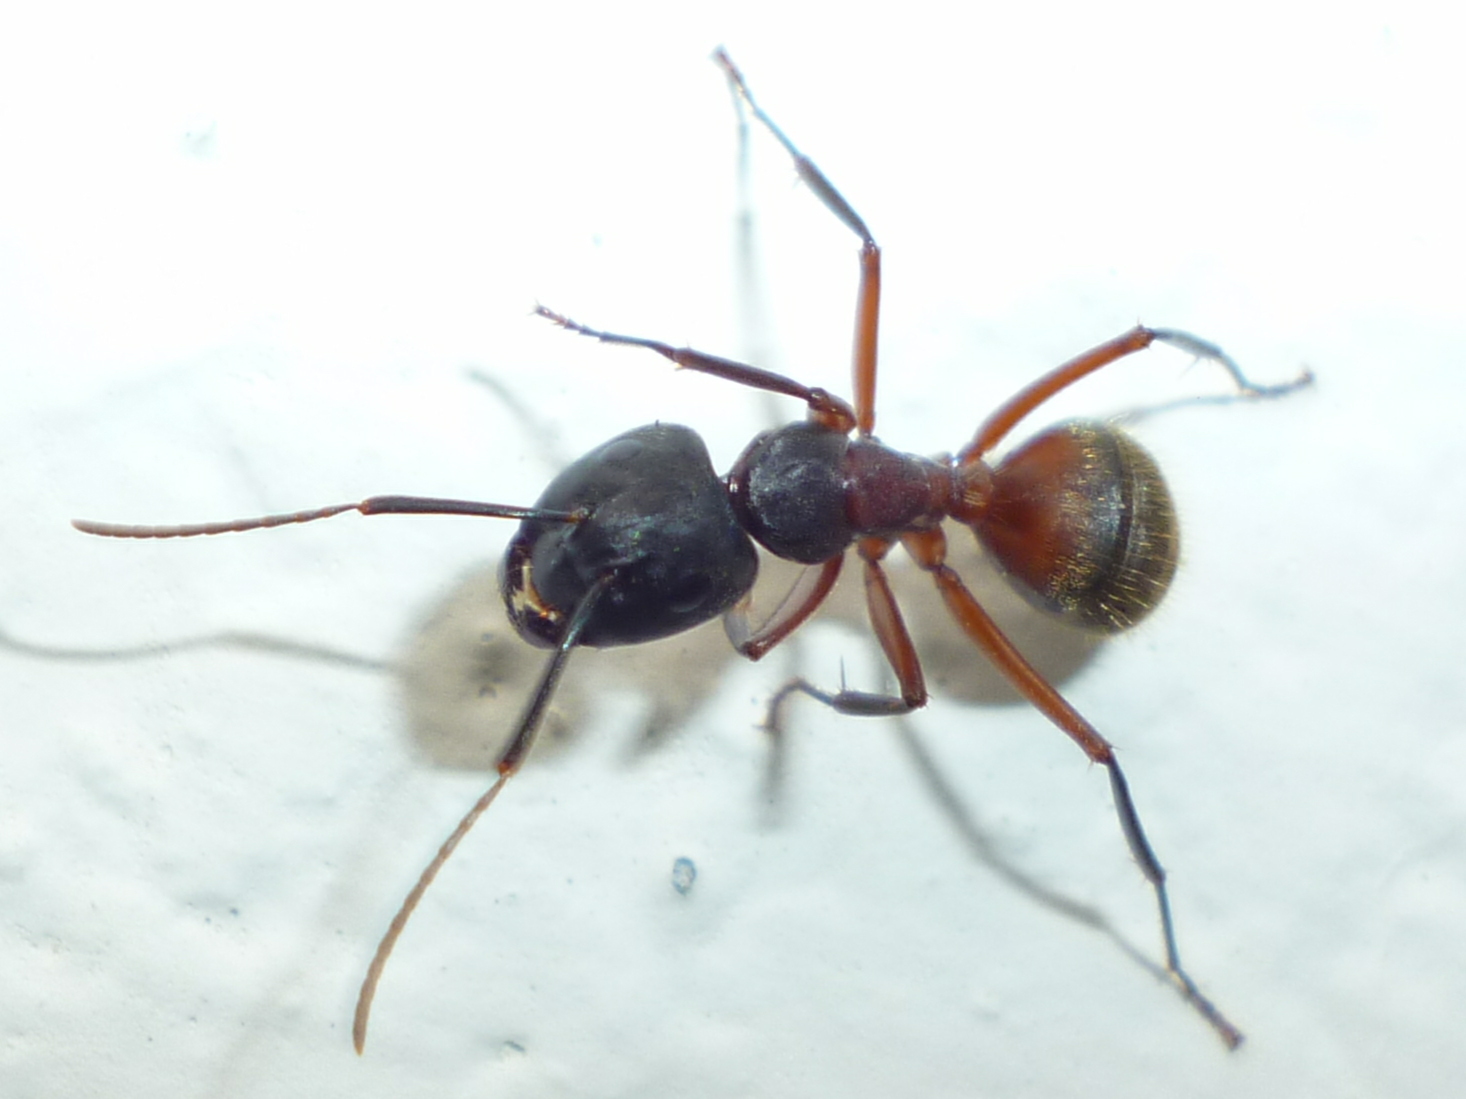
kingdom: Animalia
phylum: Arthropoda
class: Insecta
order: Hymenoptera
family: Formicidae
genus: Camponotus
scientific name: Camponotus chromaiodes
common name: Red carpenter ant
